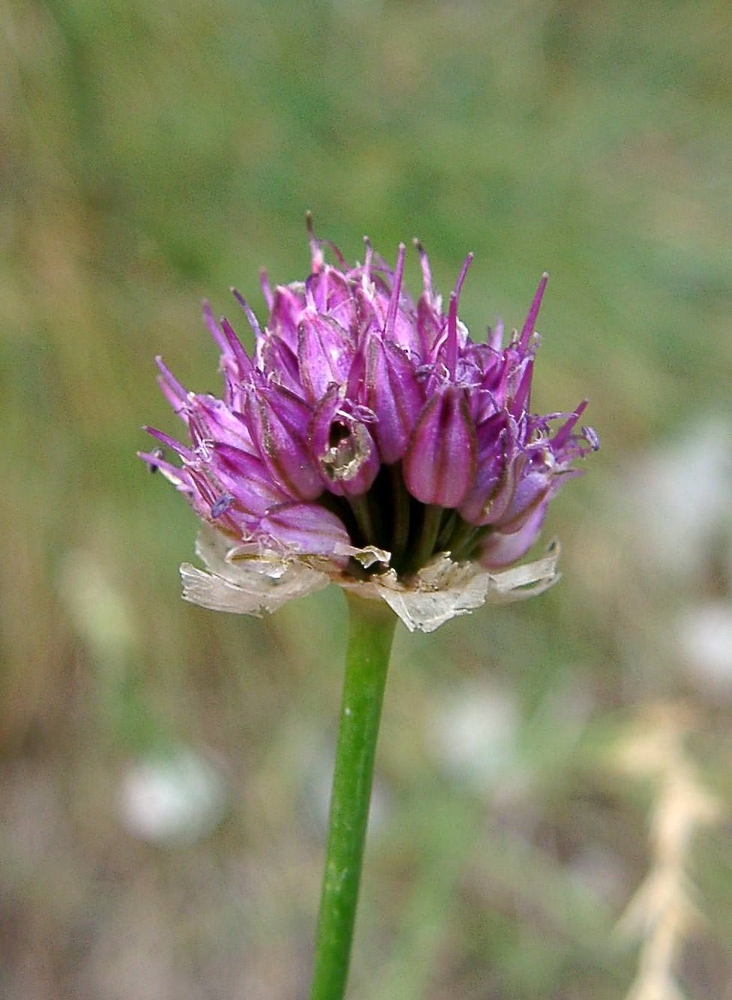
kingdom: Plantae
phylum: Tracheophyta
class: Liliopsida
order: Asparagales
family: Amaryllidaceae
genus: Allium
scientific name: Allium sphaerocephalon
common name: Round-headed leek
